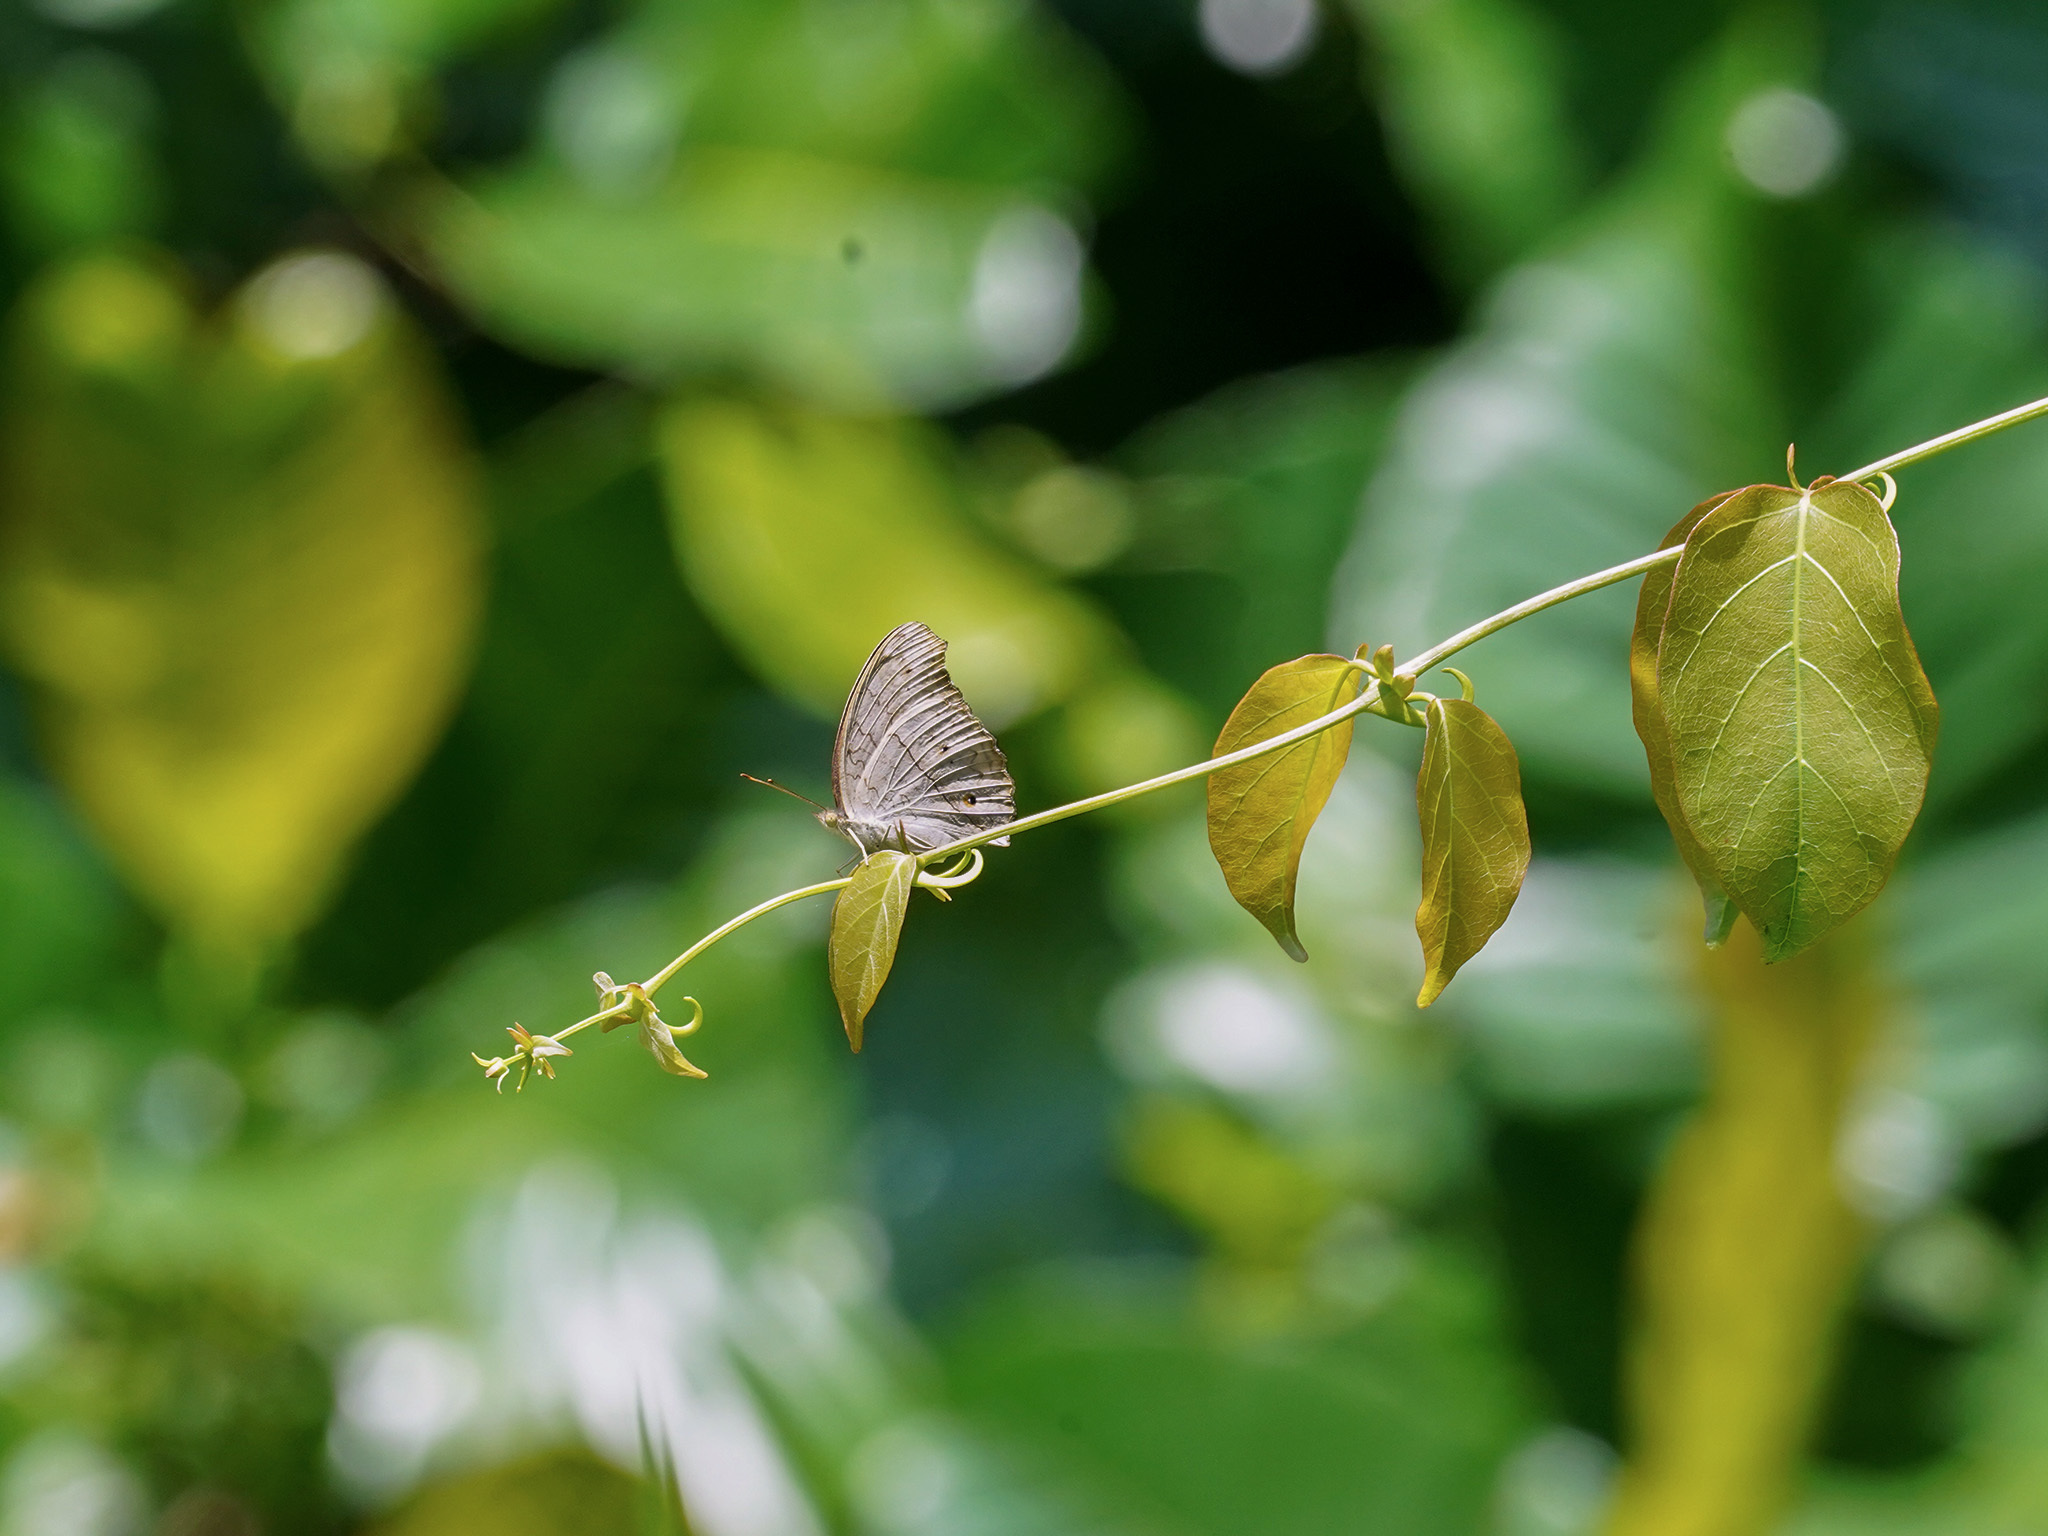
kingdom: Animalia
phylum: Arthropoda
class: Insecta
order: Lepidoptera
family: Nymphalidae
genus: Junonia
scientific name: Junonia atlites
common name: Grey pansy
